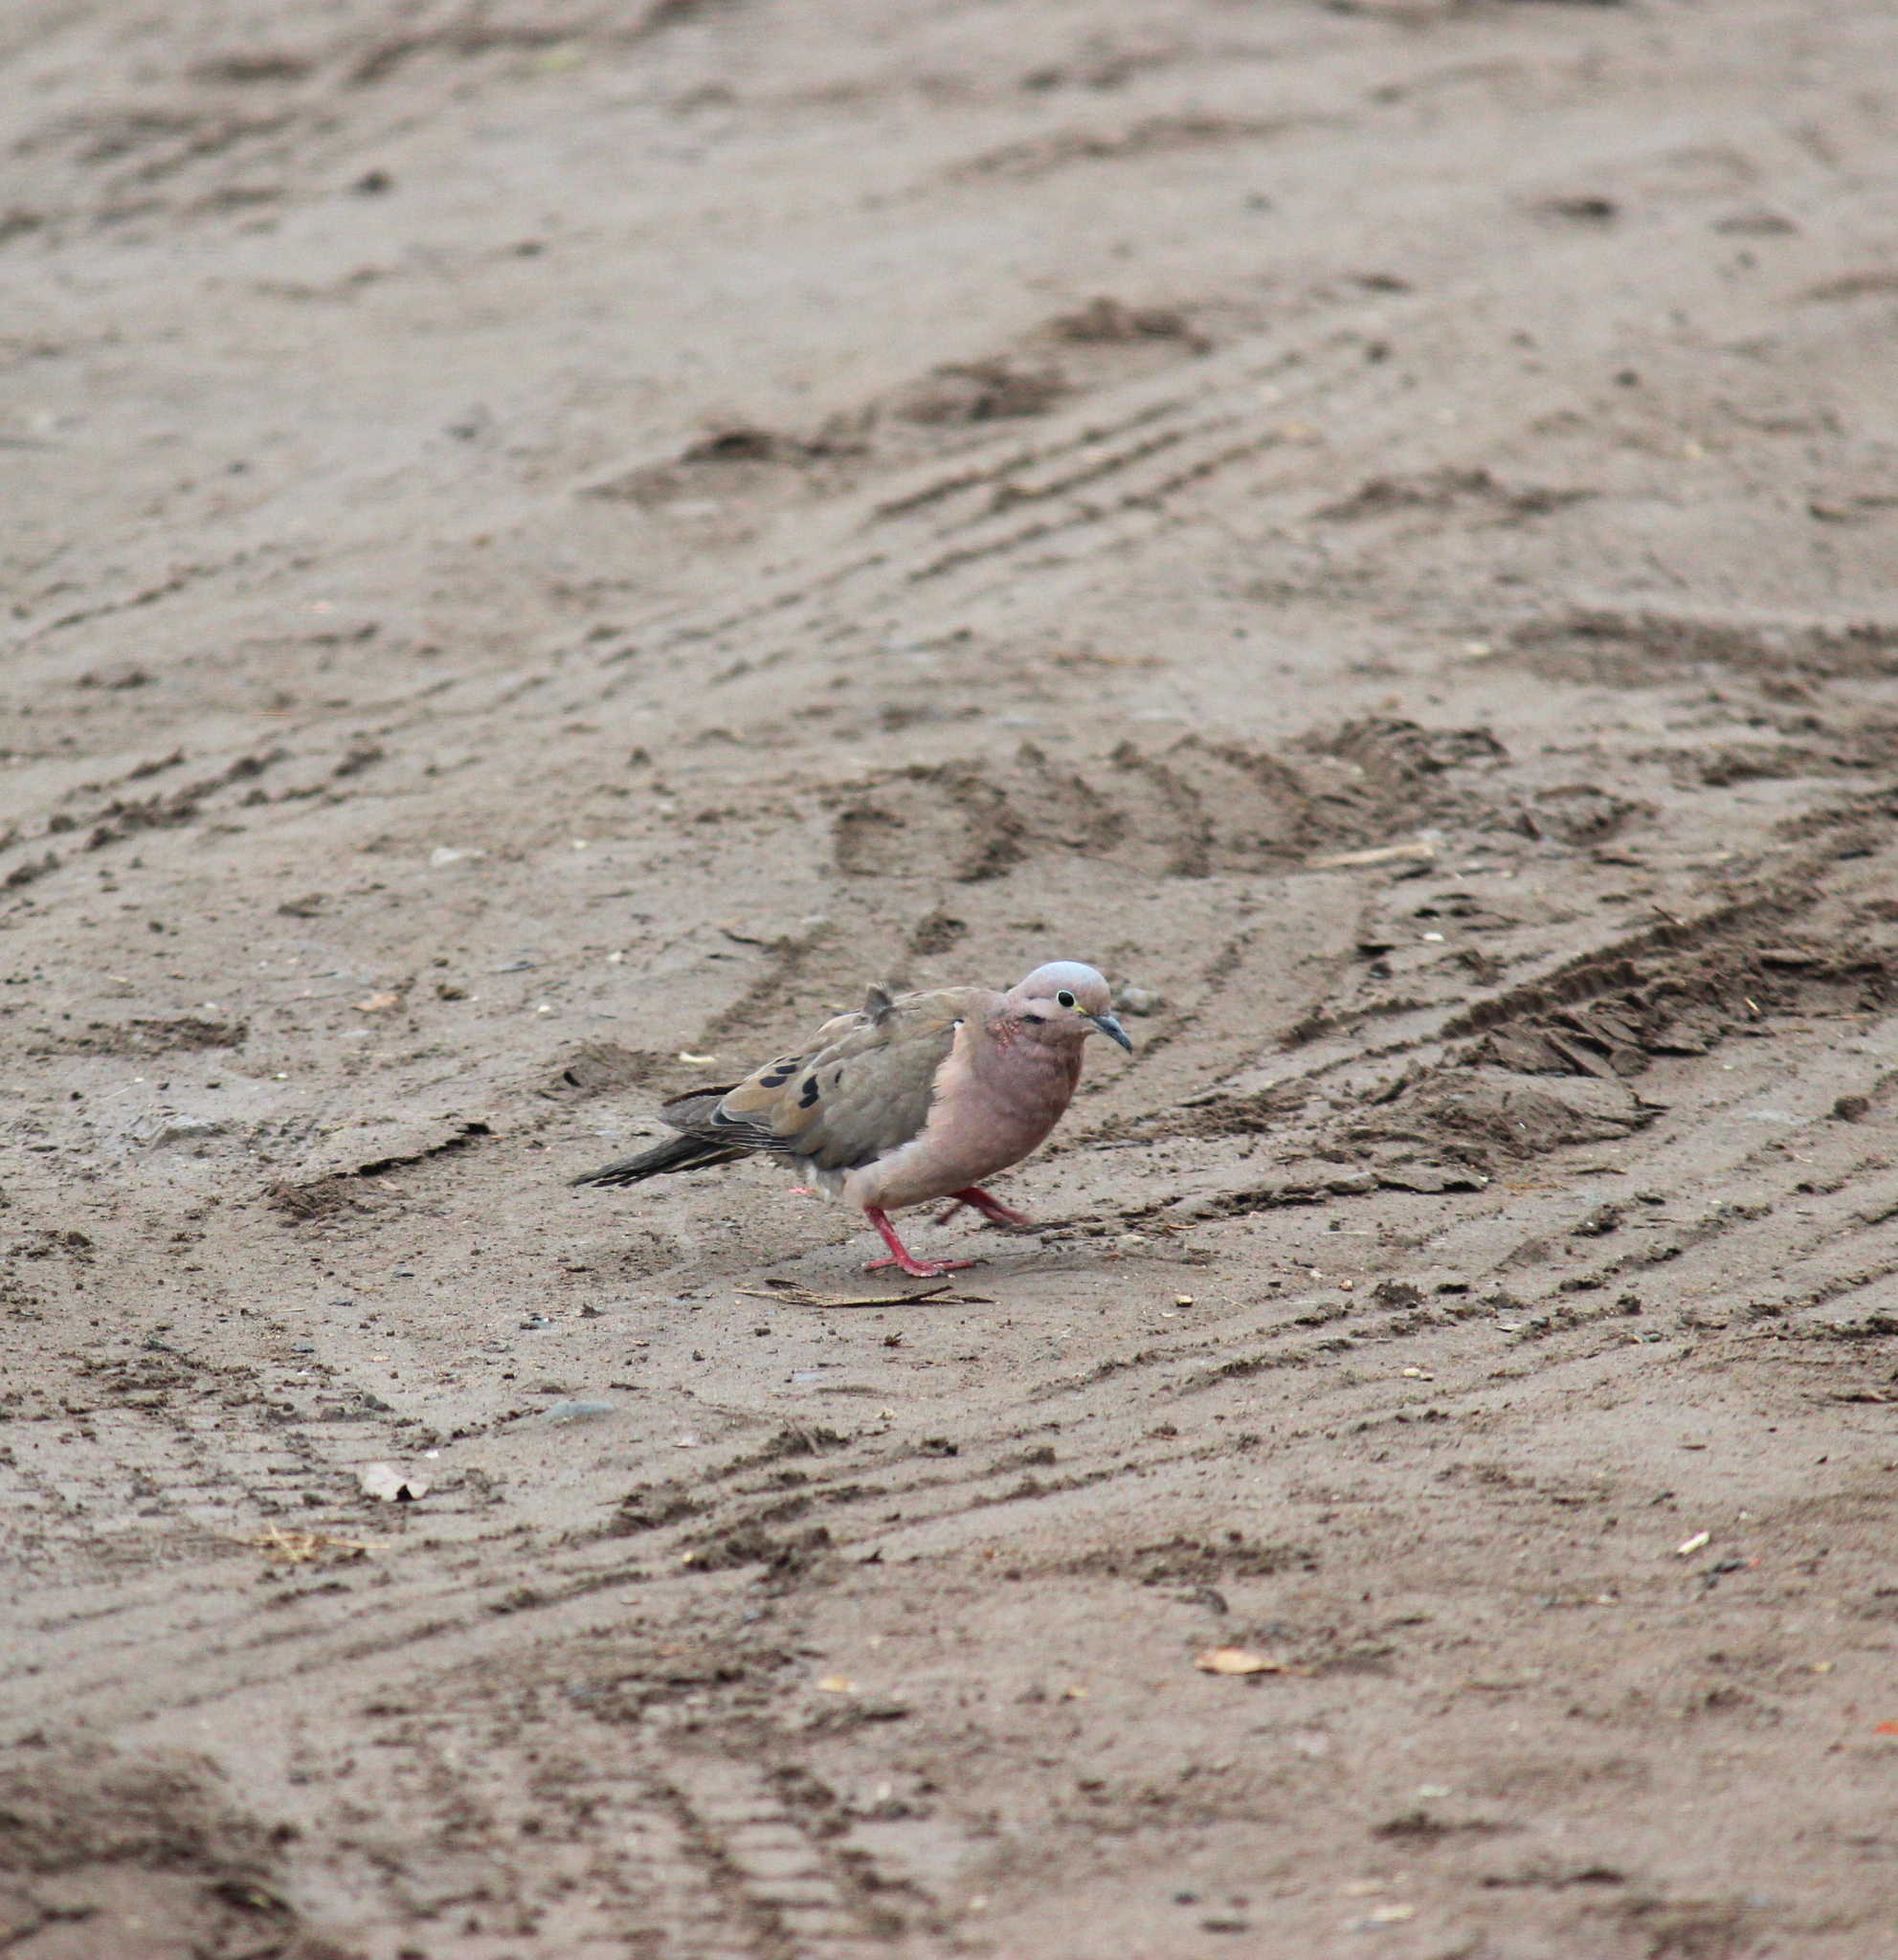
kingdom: Animalia
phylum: Chordata
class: Aves
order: Columbiformes
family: Columbidae
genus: Zenaida
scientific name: Zenaida auriculata
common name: Eared dove
